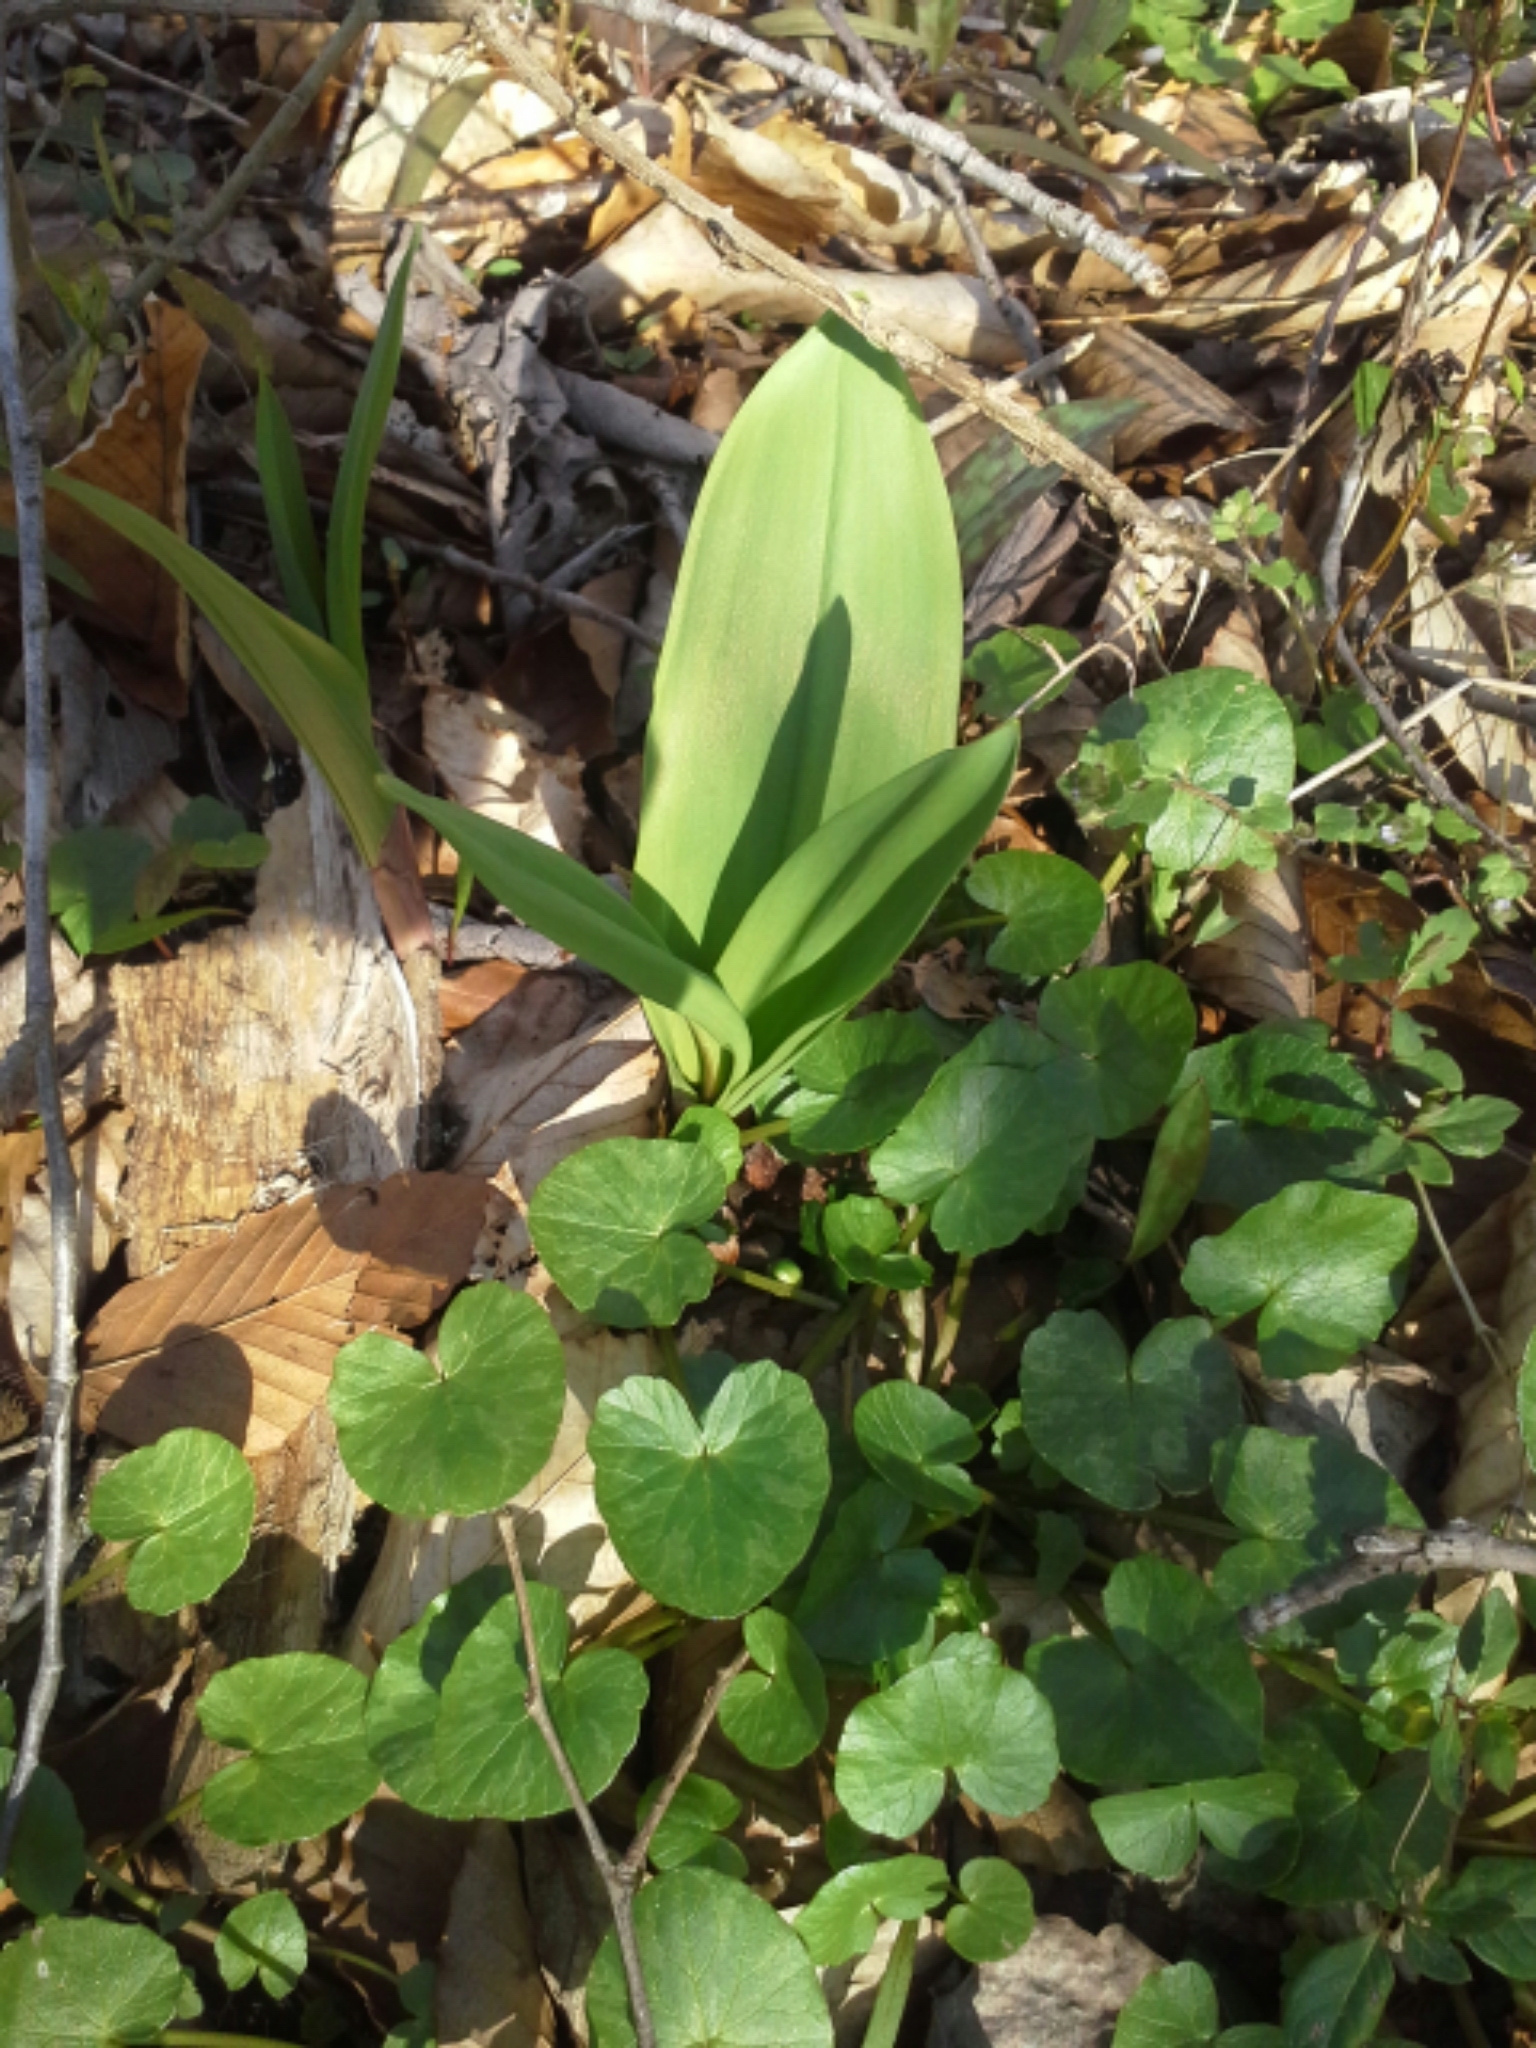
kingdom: Plantae
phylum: Tracheophyta
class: Liliopsida
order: Asparagales
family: Amaryllidaceae
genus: Allium
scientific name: Allium tricoccum
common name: Ramp
